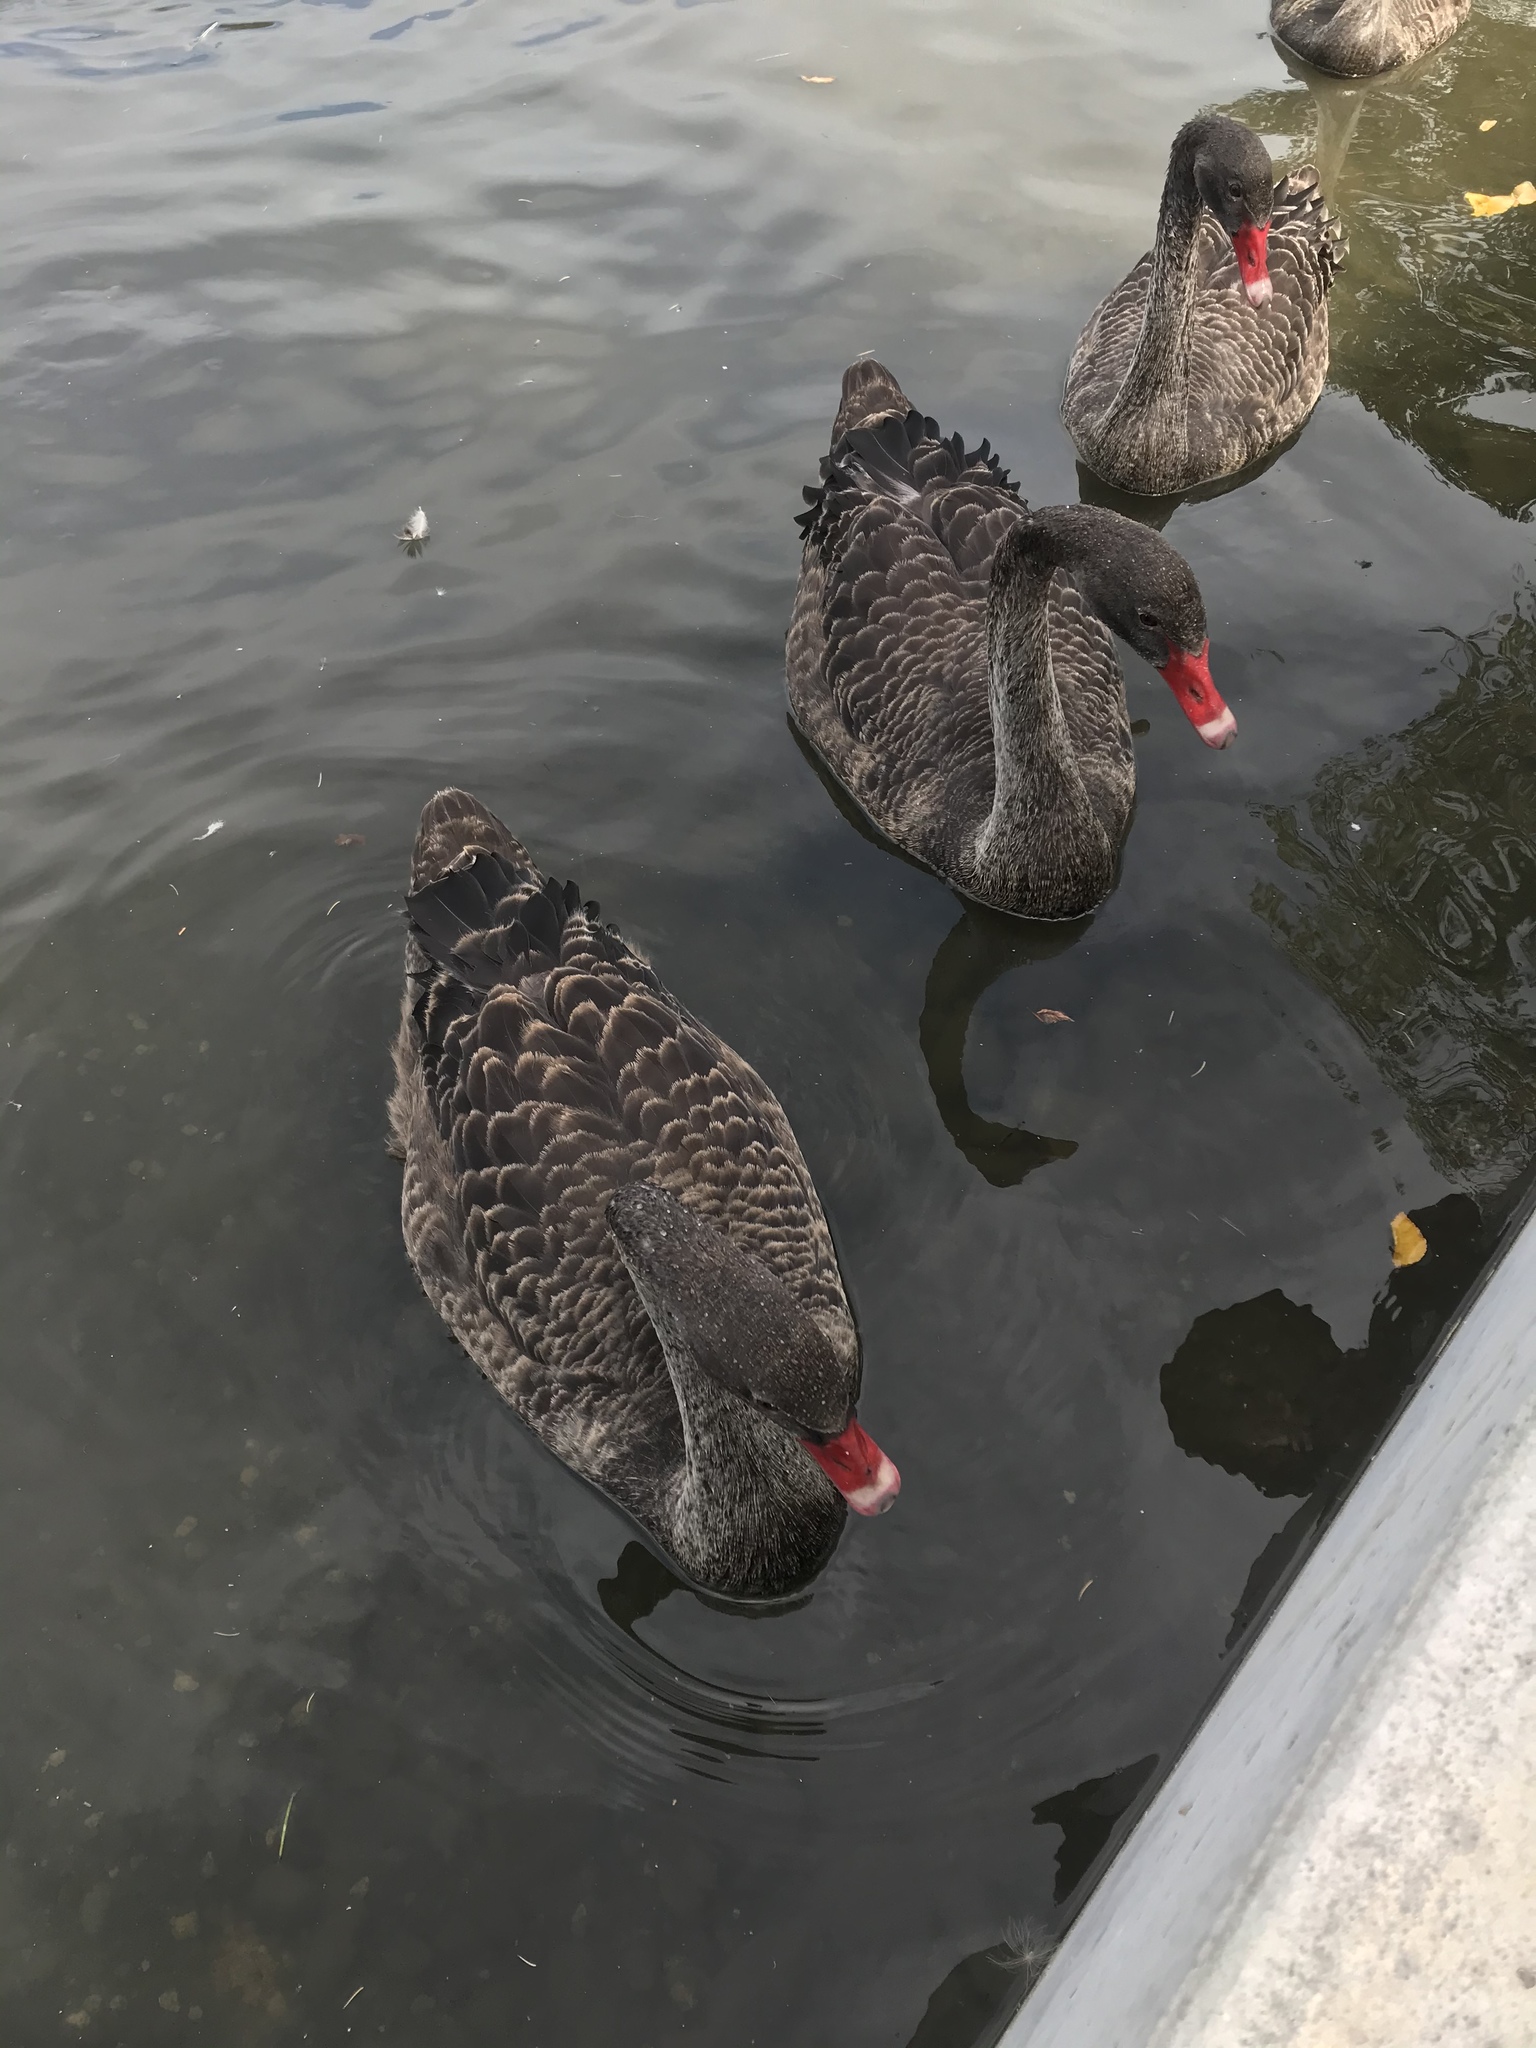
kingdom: Animalia
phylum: Chordata
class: Aves
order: Anseriformes
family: Anatidae
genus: Cygnus
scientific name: Cygnus atratus
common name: Black swan
